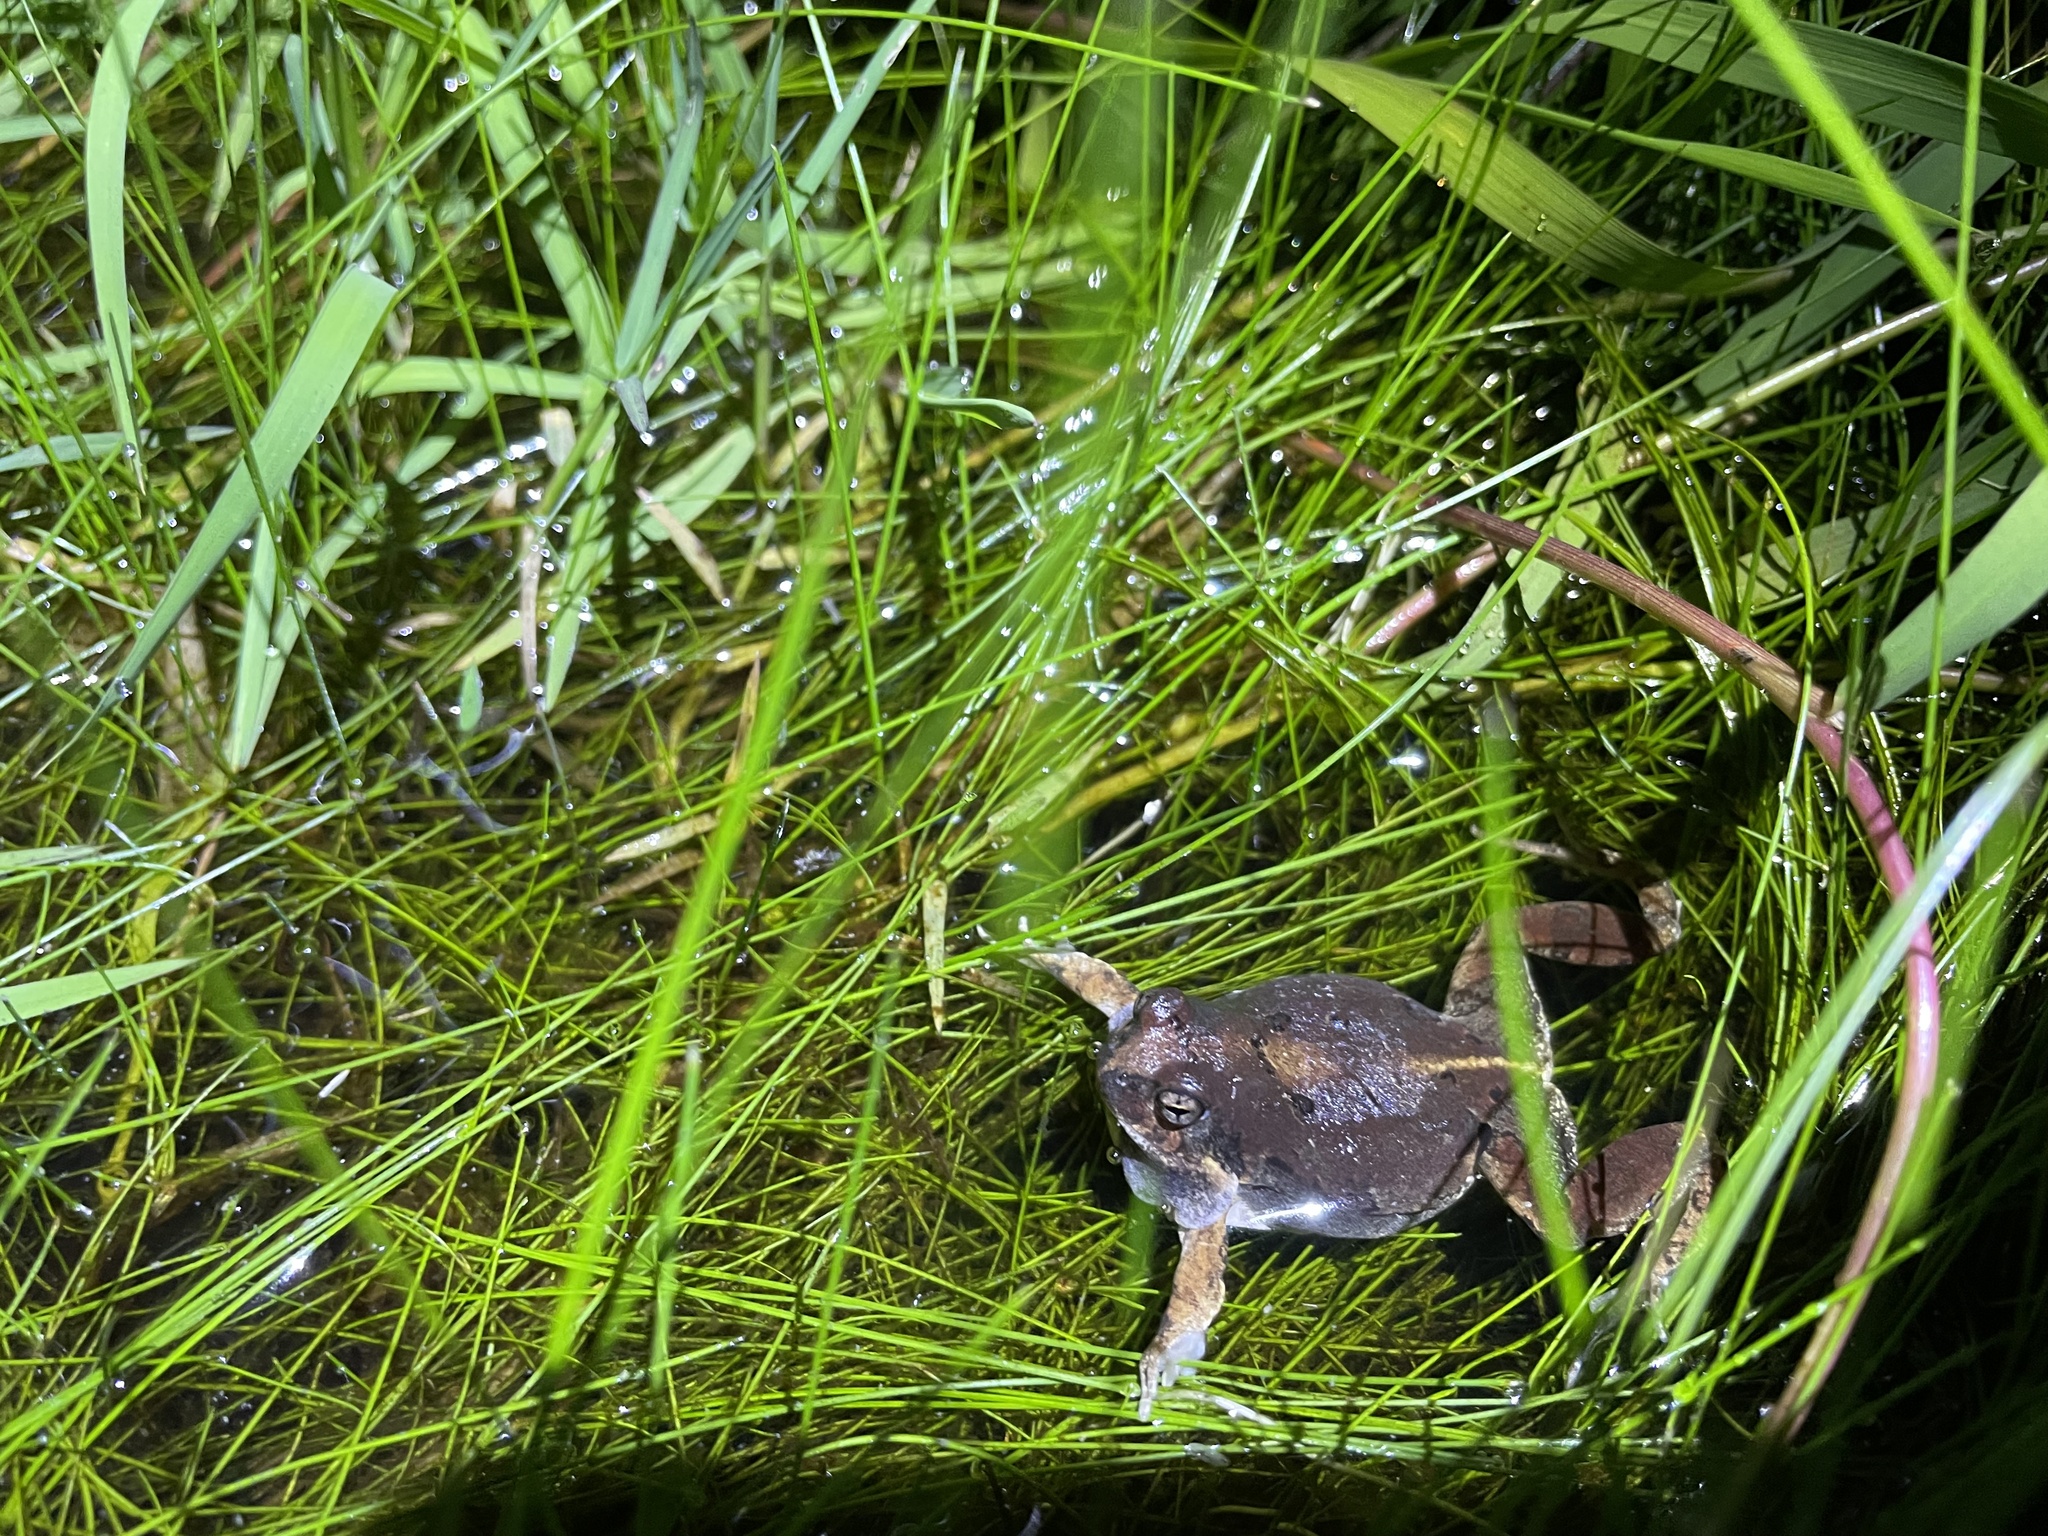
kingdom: Animalia
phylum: Chordata
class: Amphibia
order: Anura
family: Leptodactylidae
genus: Physalaemus
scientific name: Physalaemus biligonigerus
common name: Weeping frog
